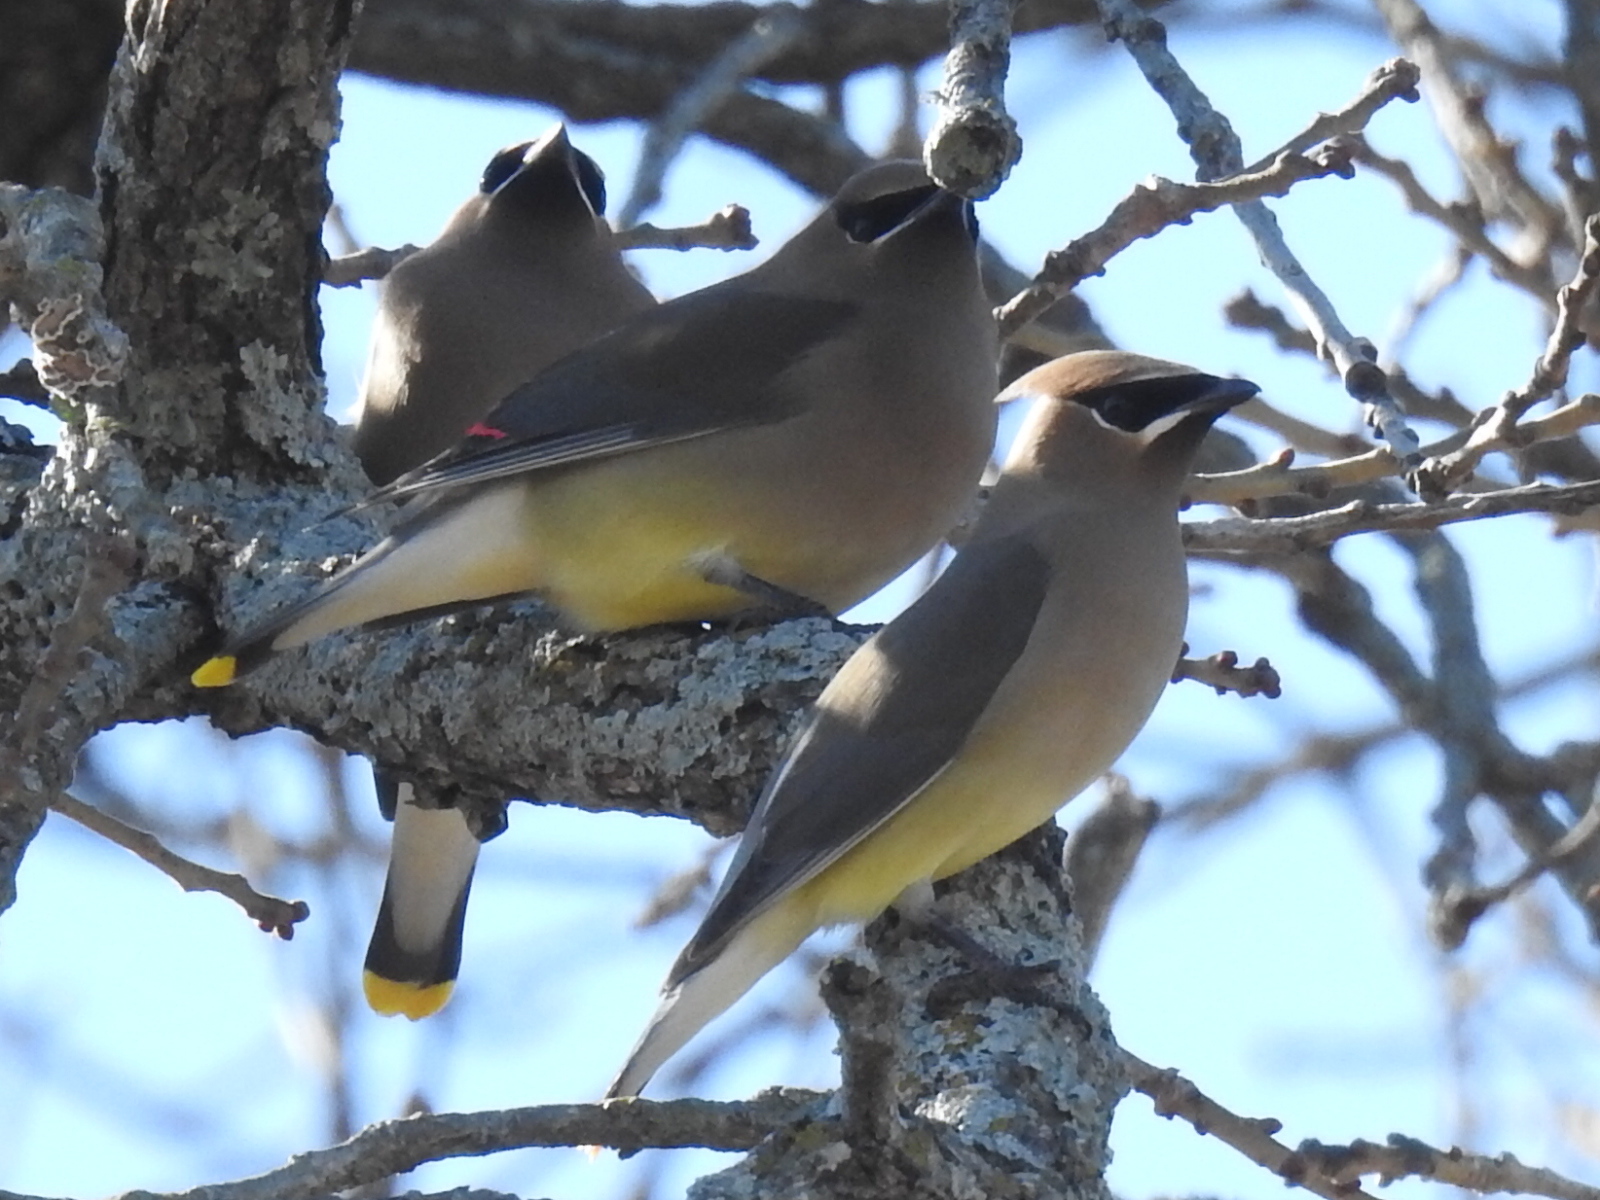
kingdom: Animalia
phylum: Chordata
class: Aves
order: Passeriformes
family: Bombycillidae
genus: Bombycilla
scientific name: Bombycilla cedrorum
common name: Cedar waxwing
